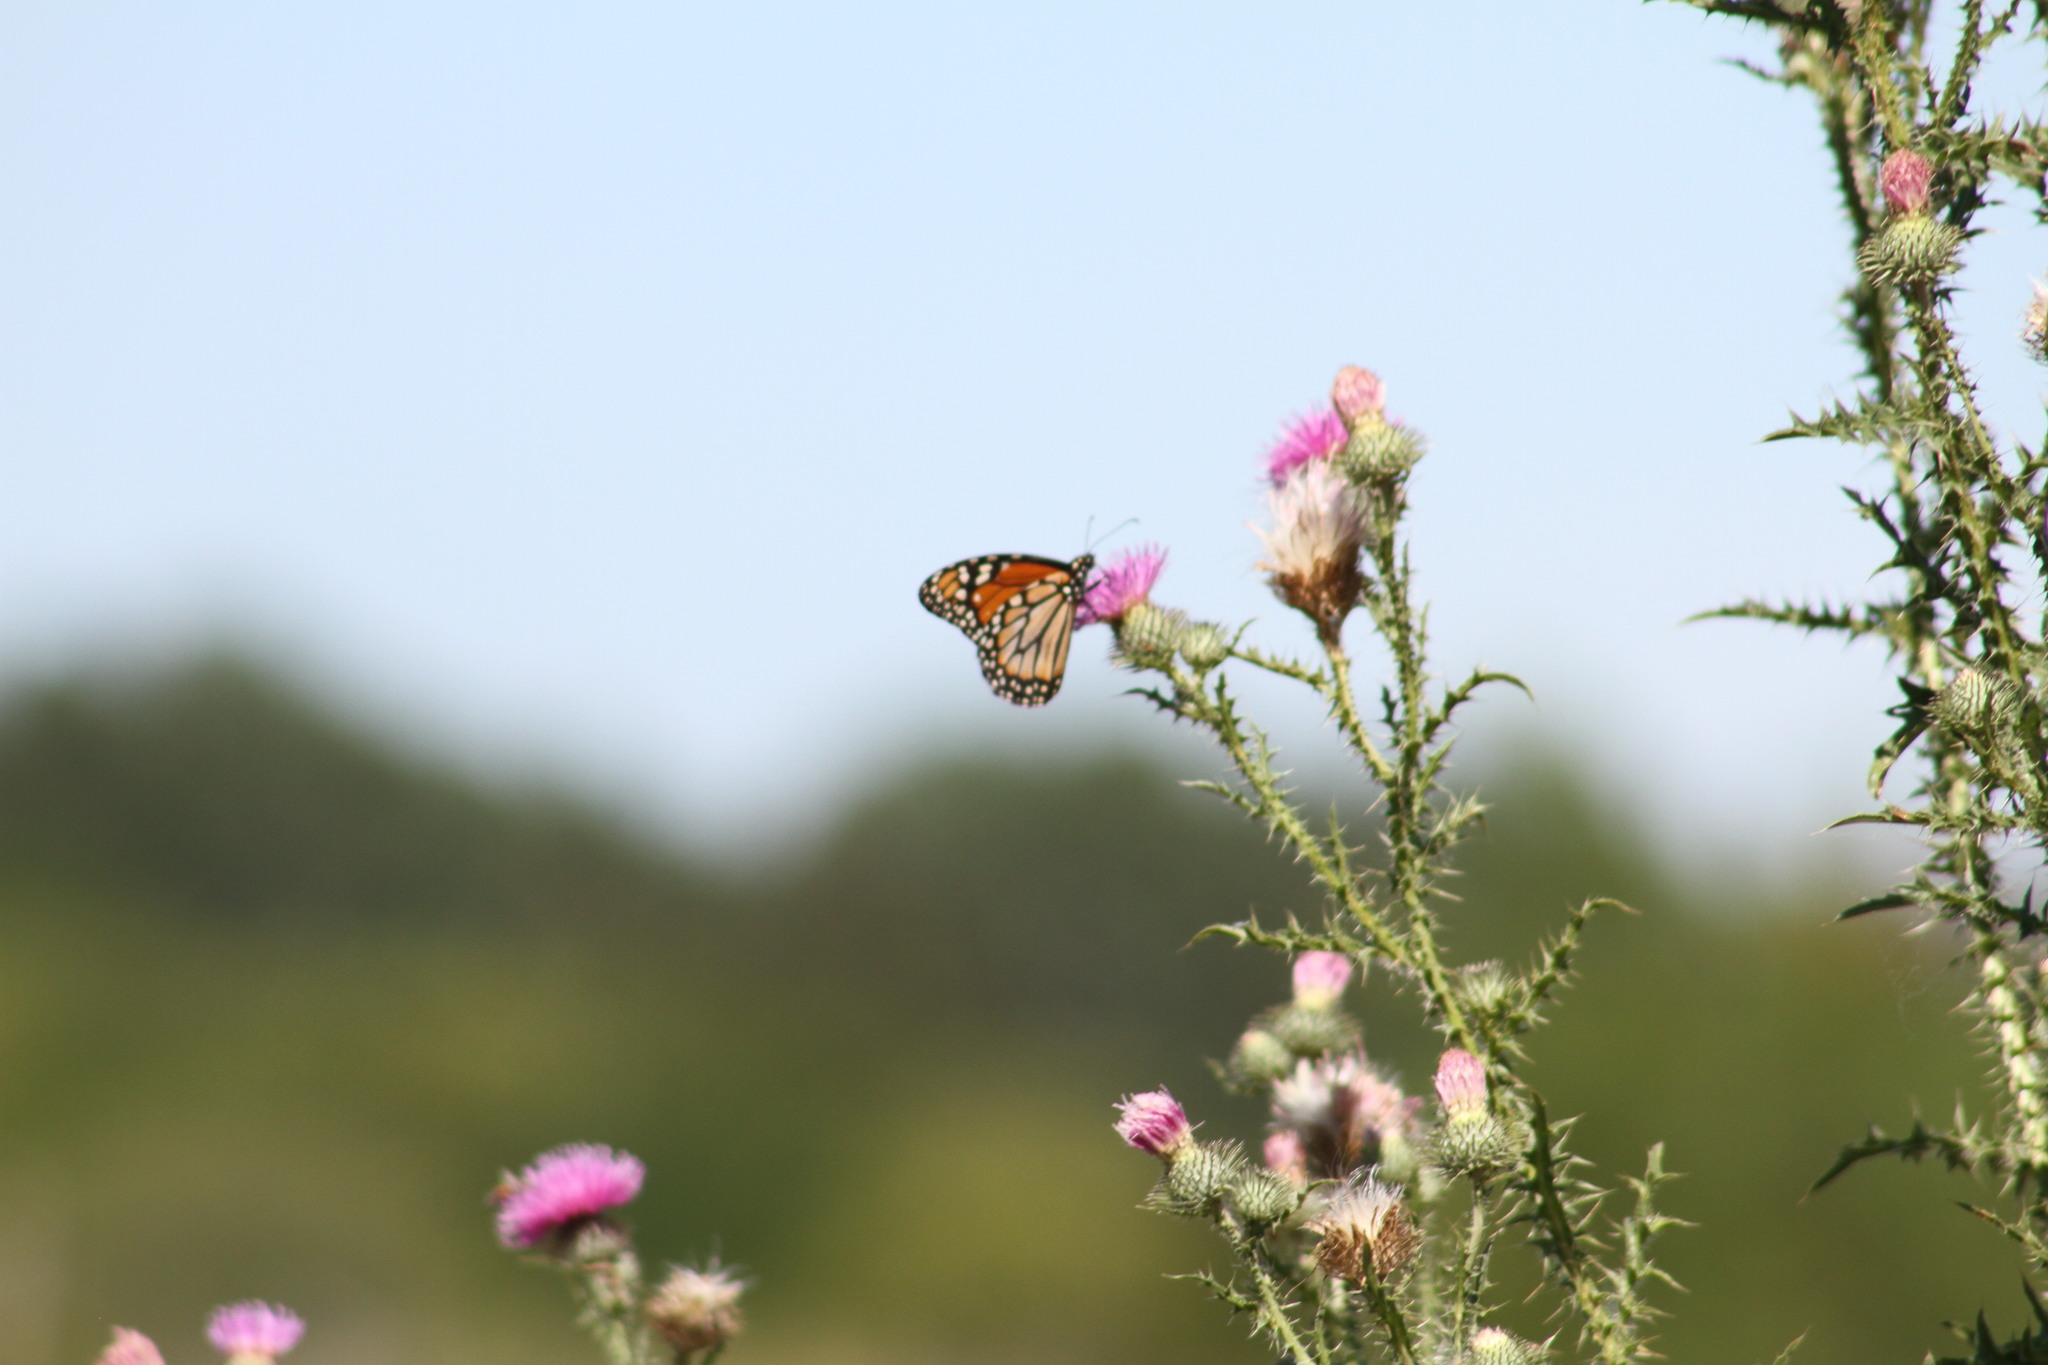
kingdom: Animalia
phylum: Arthropoda
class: Insecta
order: Lepidoptera
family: Nymphalidae
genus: Danaus
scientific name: Danaus erippus
